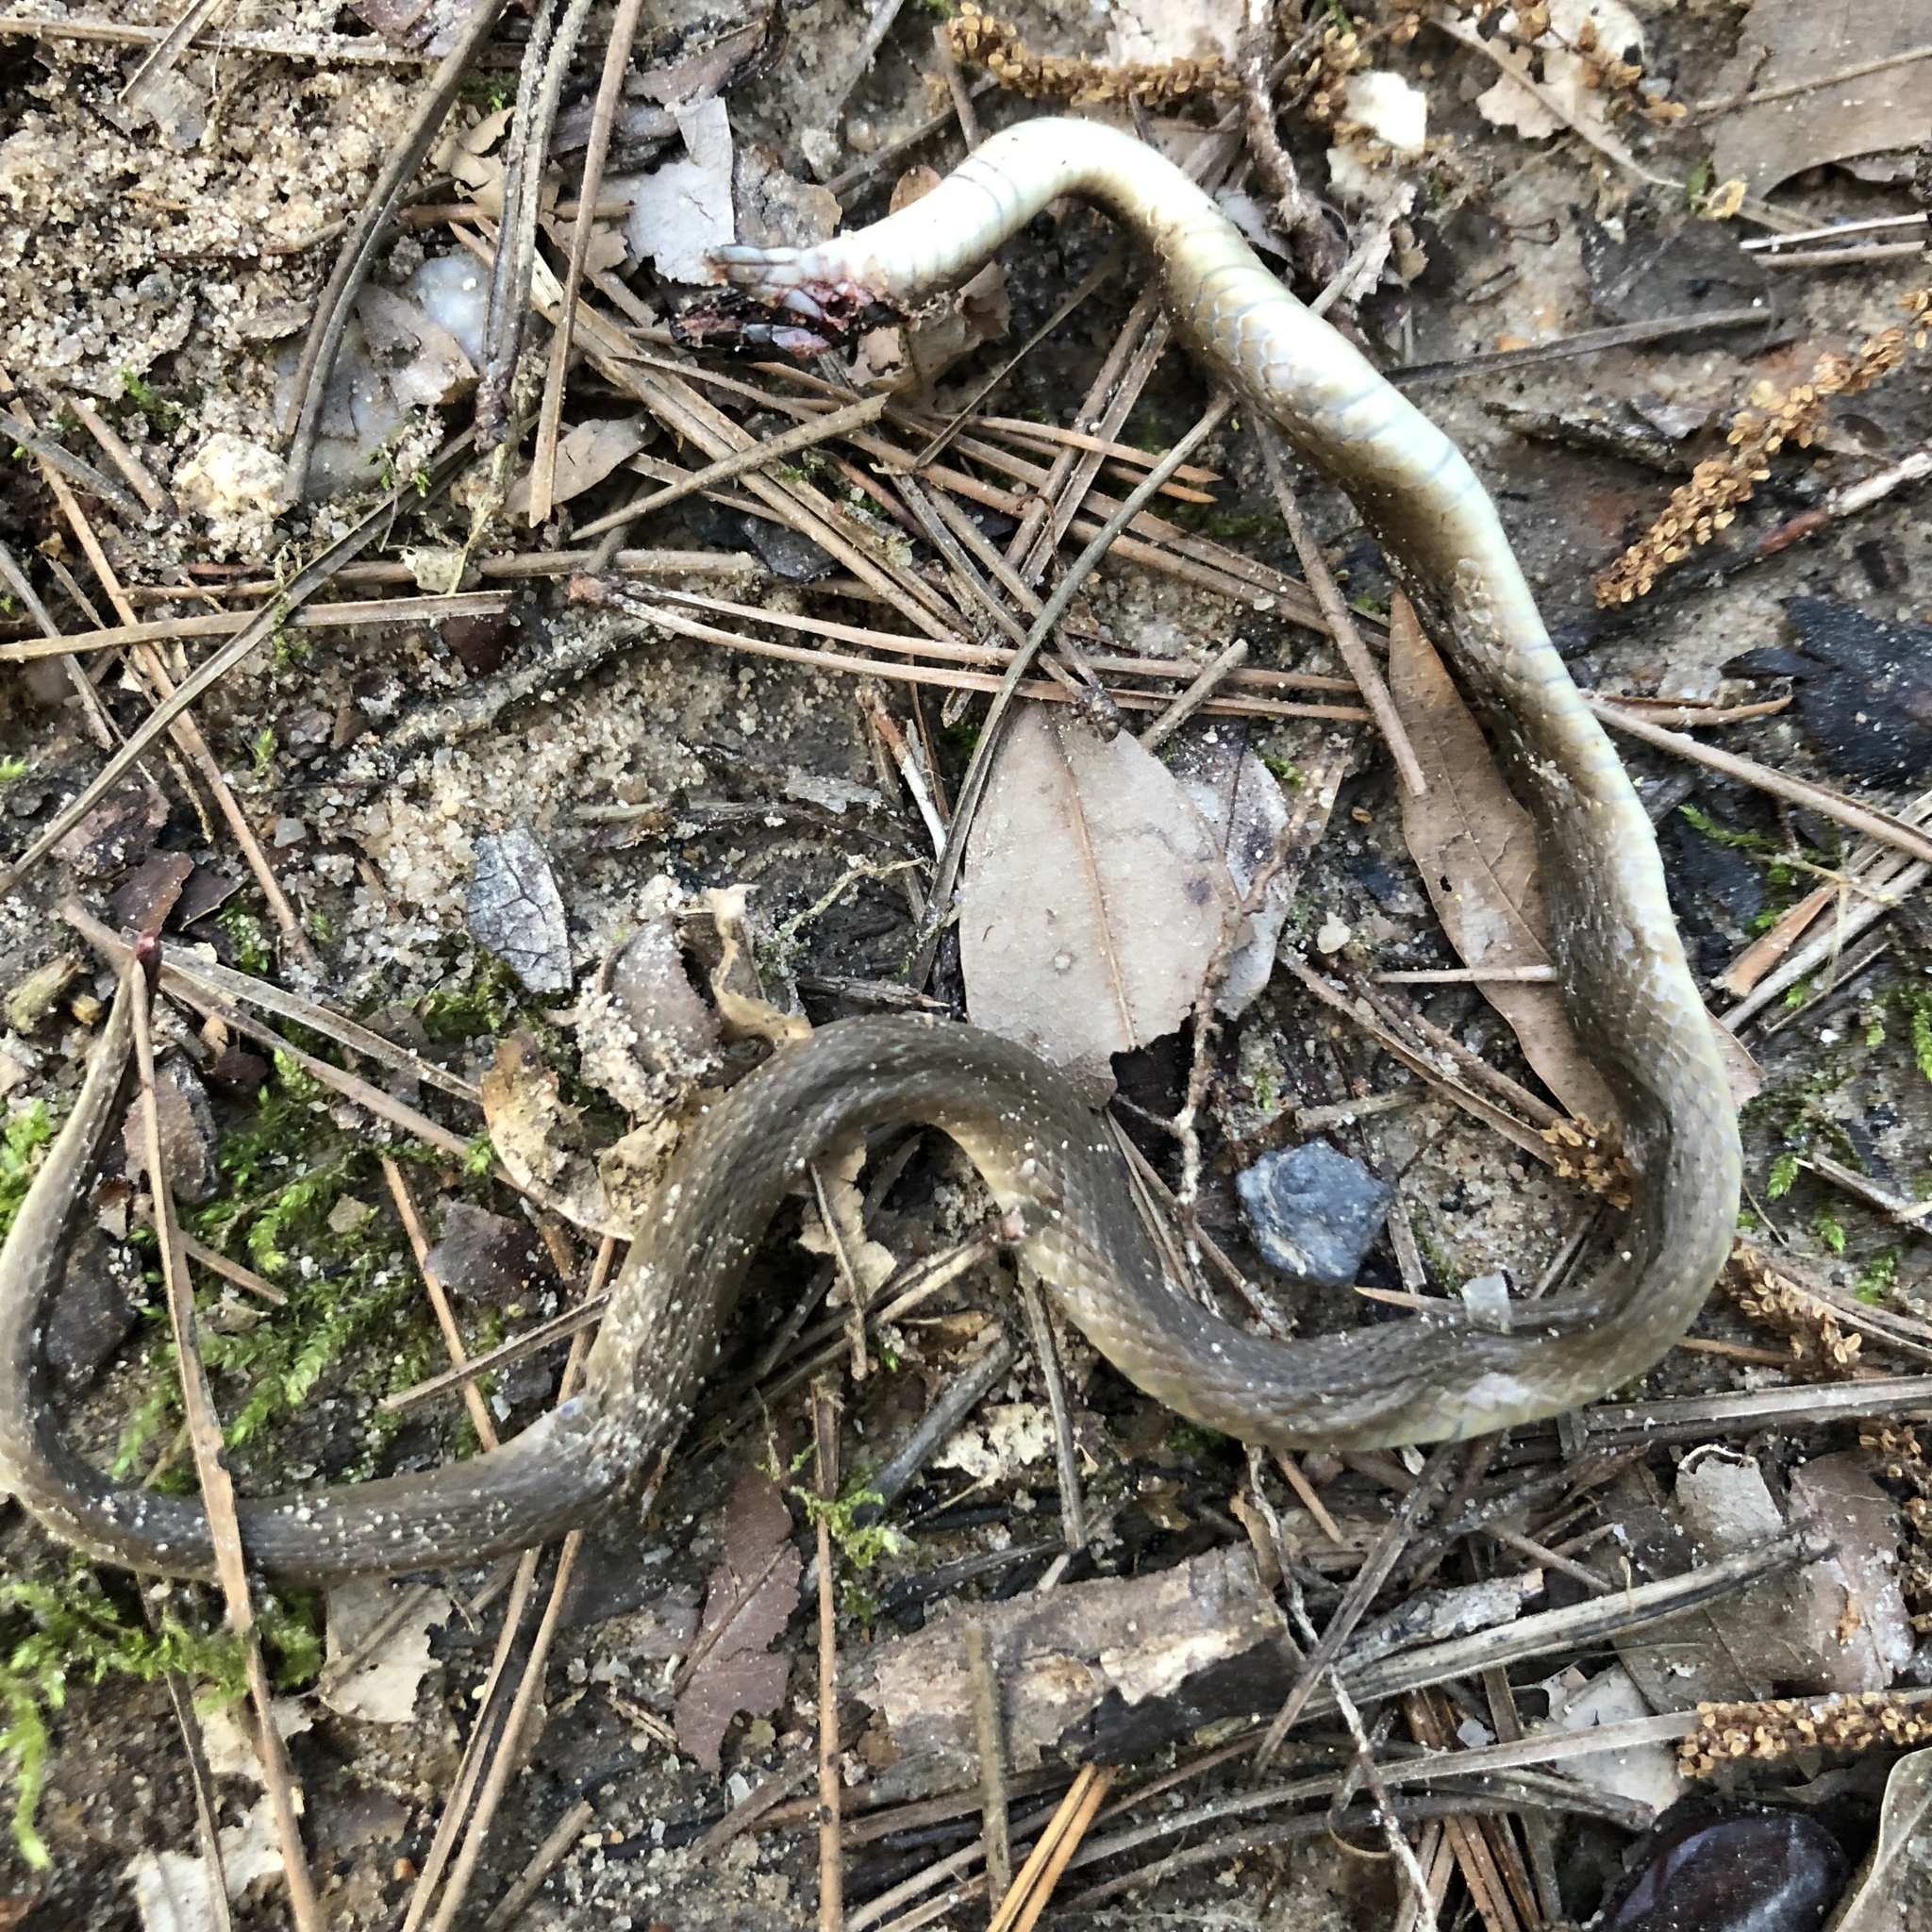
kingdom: Animalia
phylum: Chordata
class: Squamata
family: Colubridae
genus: Haldea
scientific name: Haldea striatula
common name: Rough earth snake
